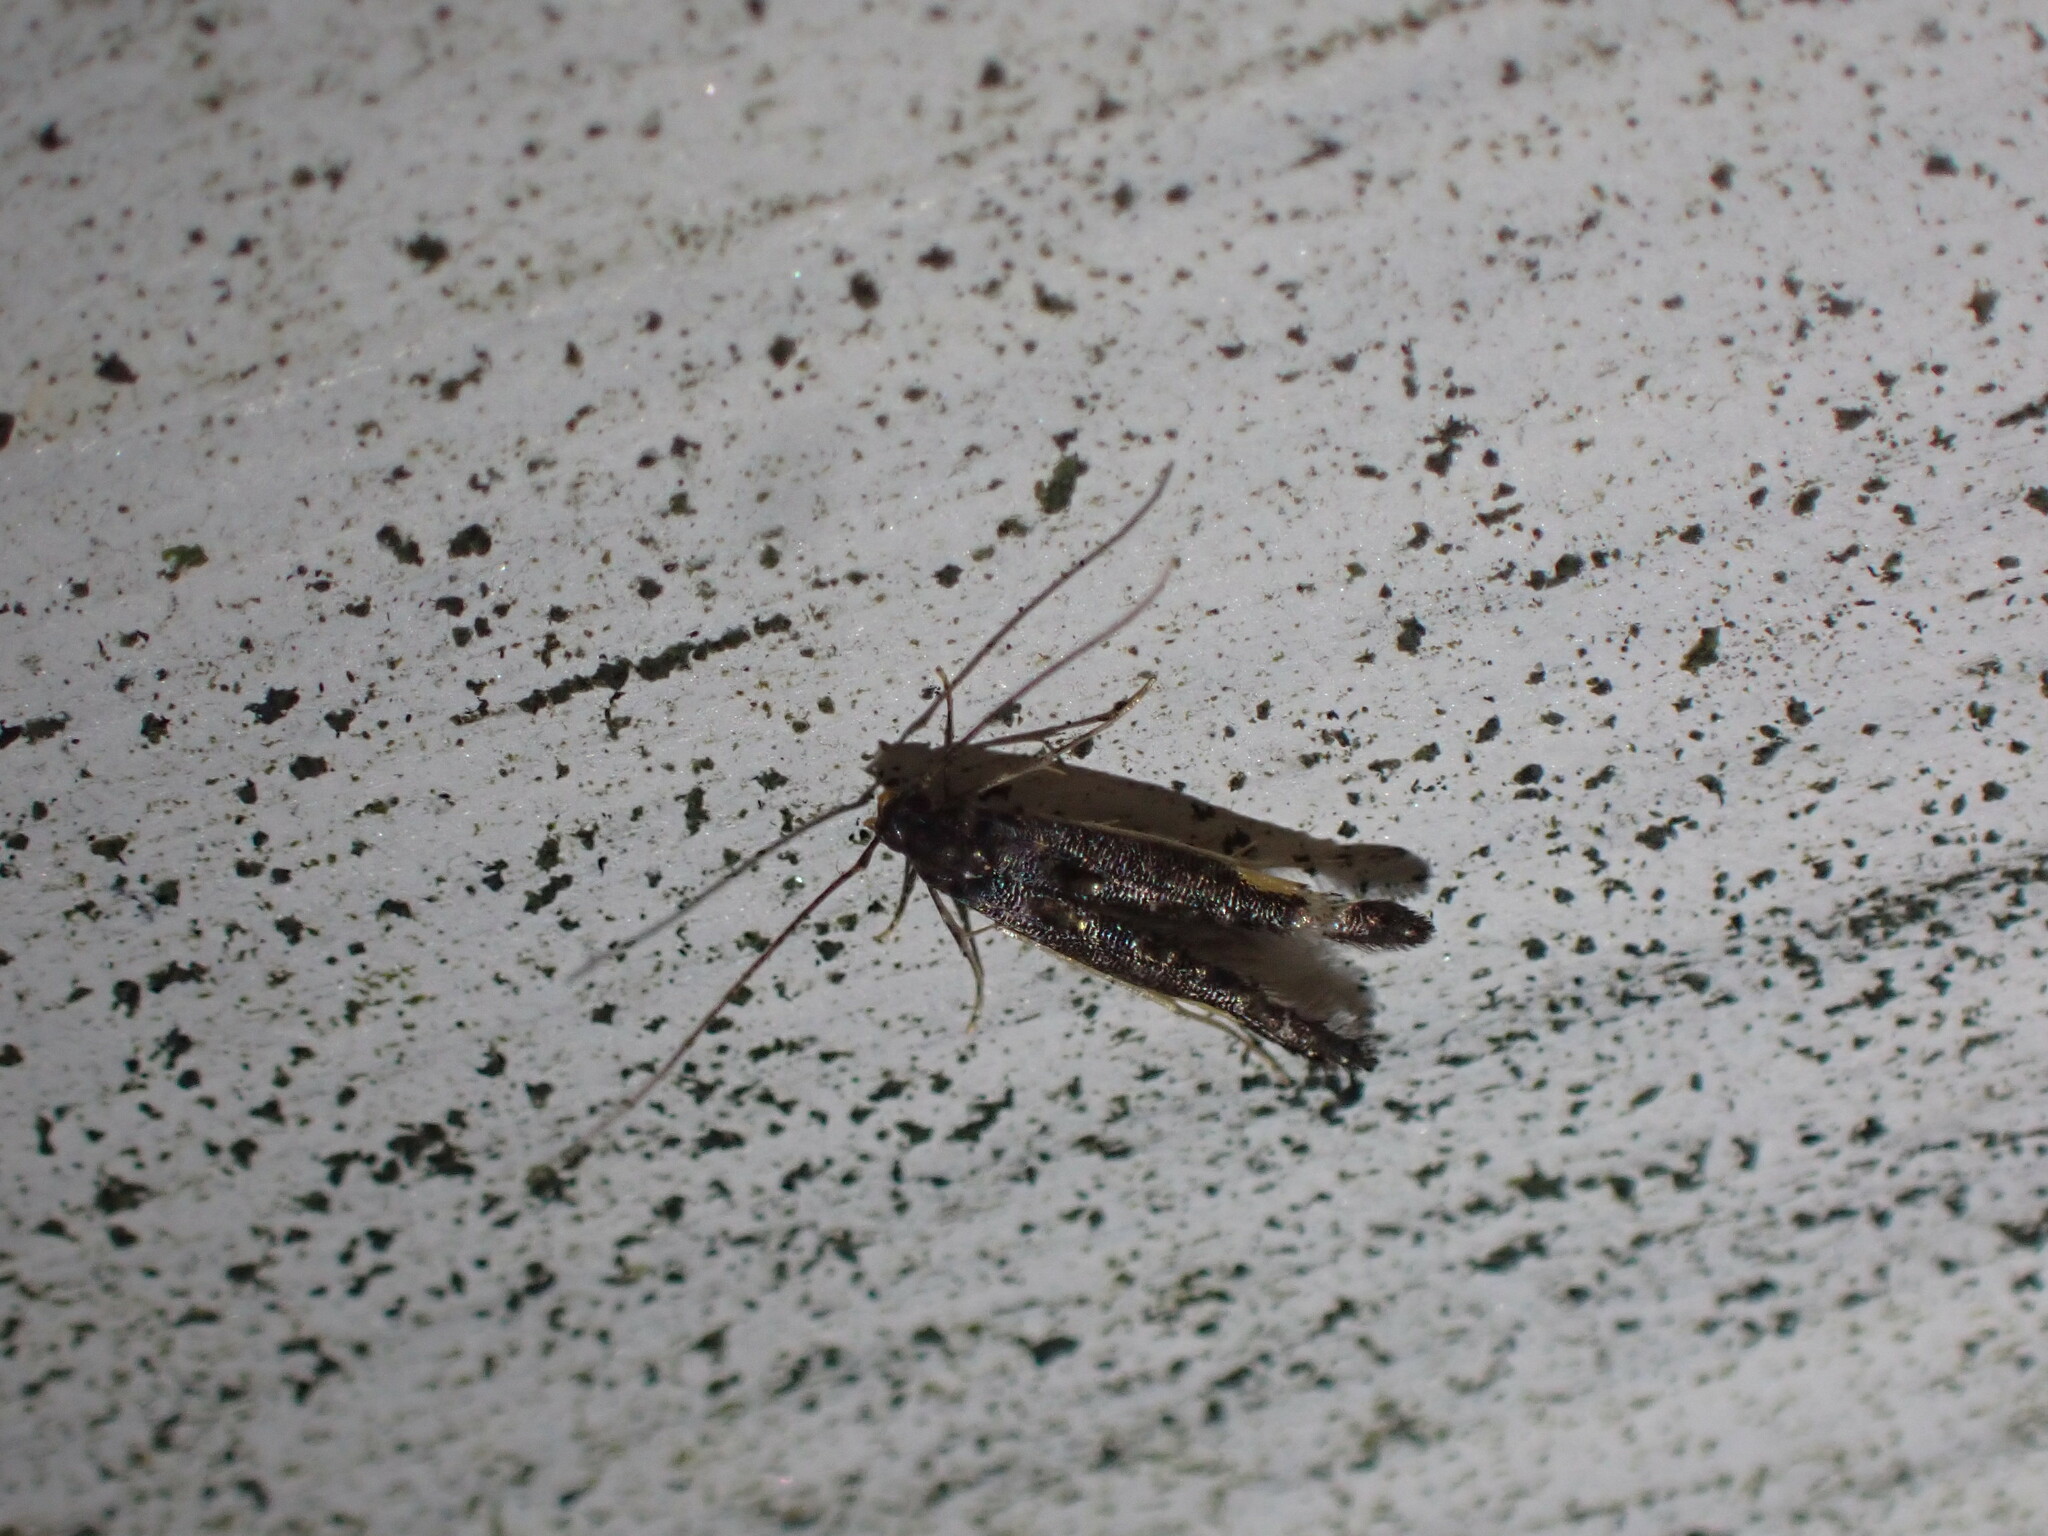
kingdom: Animalia
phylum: Arthropoda
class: Insecta
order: Lepidoptera
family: Elachistidae
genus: Microcolona
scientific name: Microcolona
